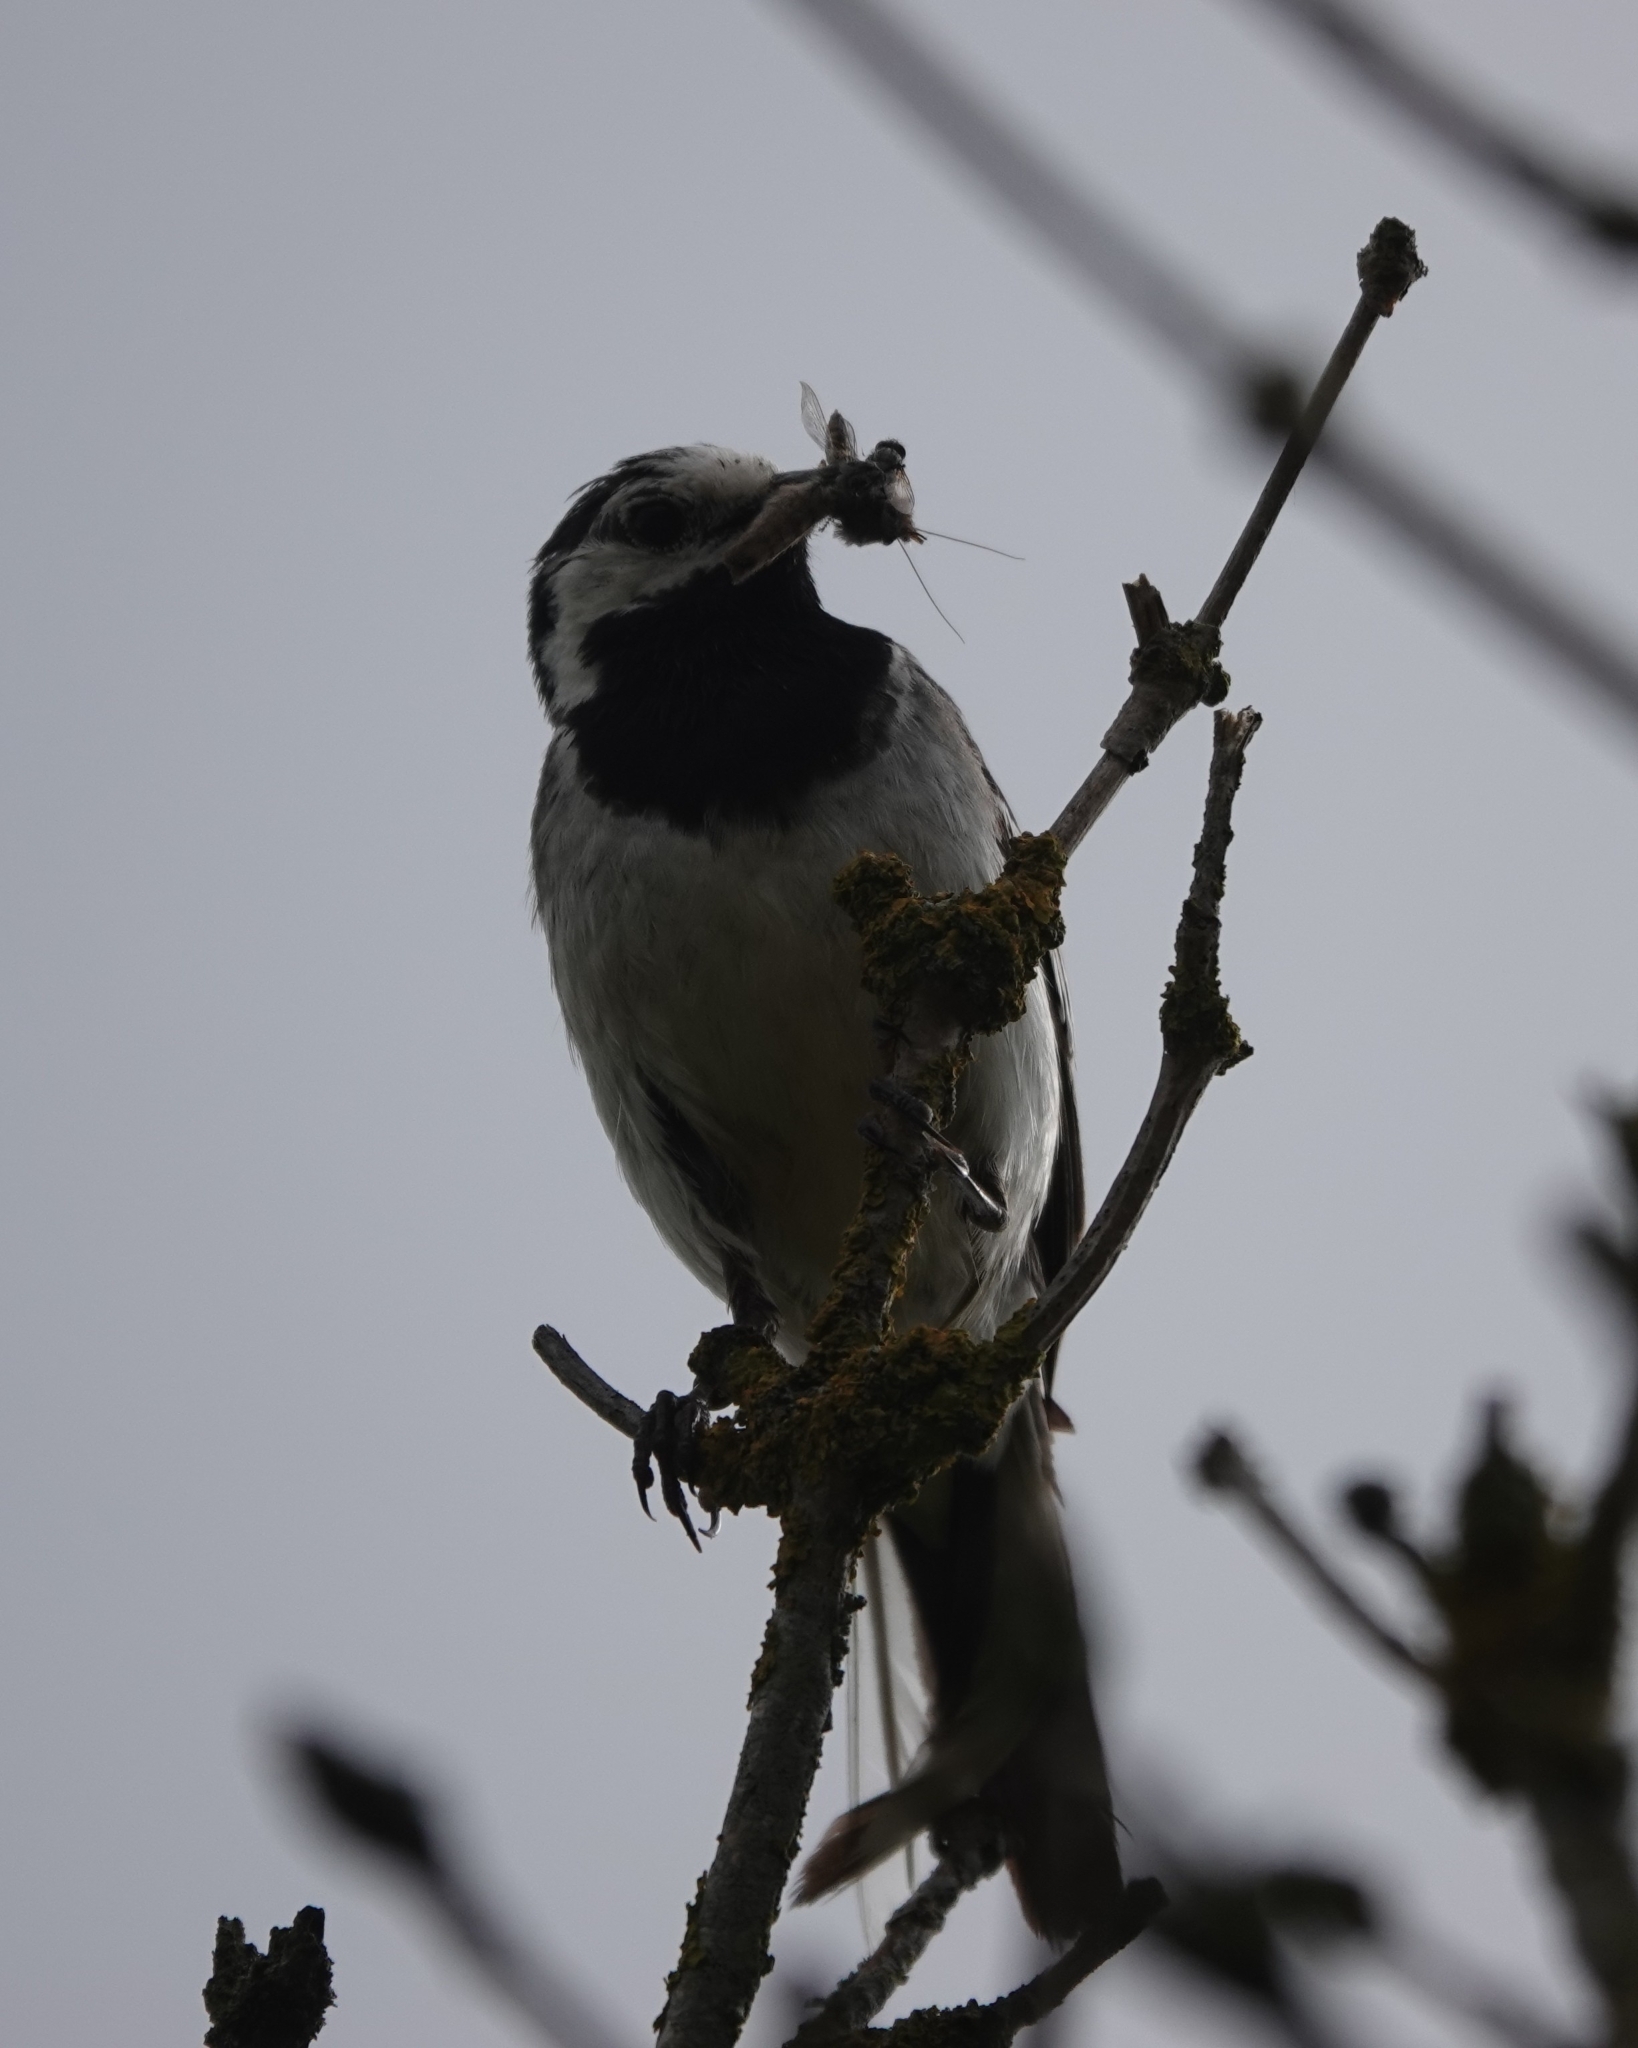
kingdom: Animalia
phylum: Chordata
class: Aves
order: Passeriformes
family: Motacillidae
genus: Motacilla
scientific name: Motacilla alba
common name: White wagtail
